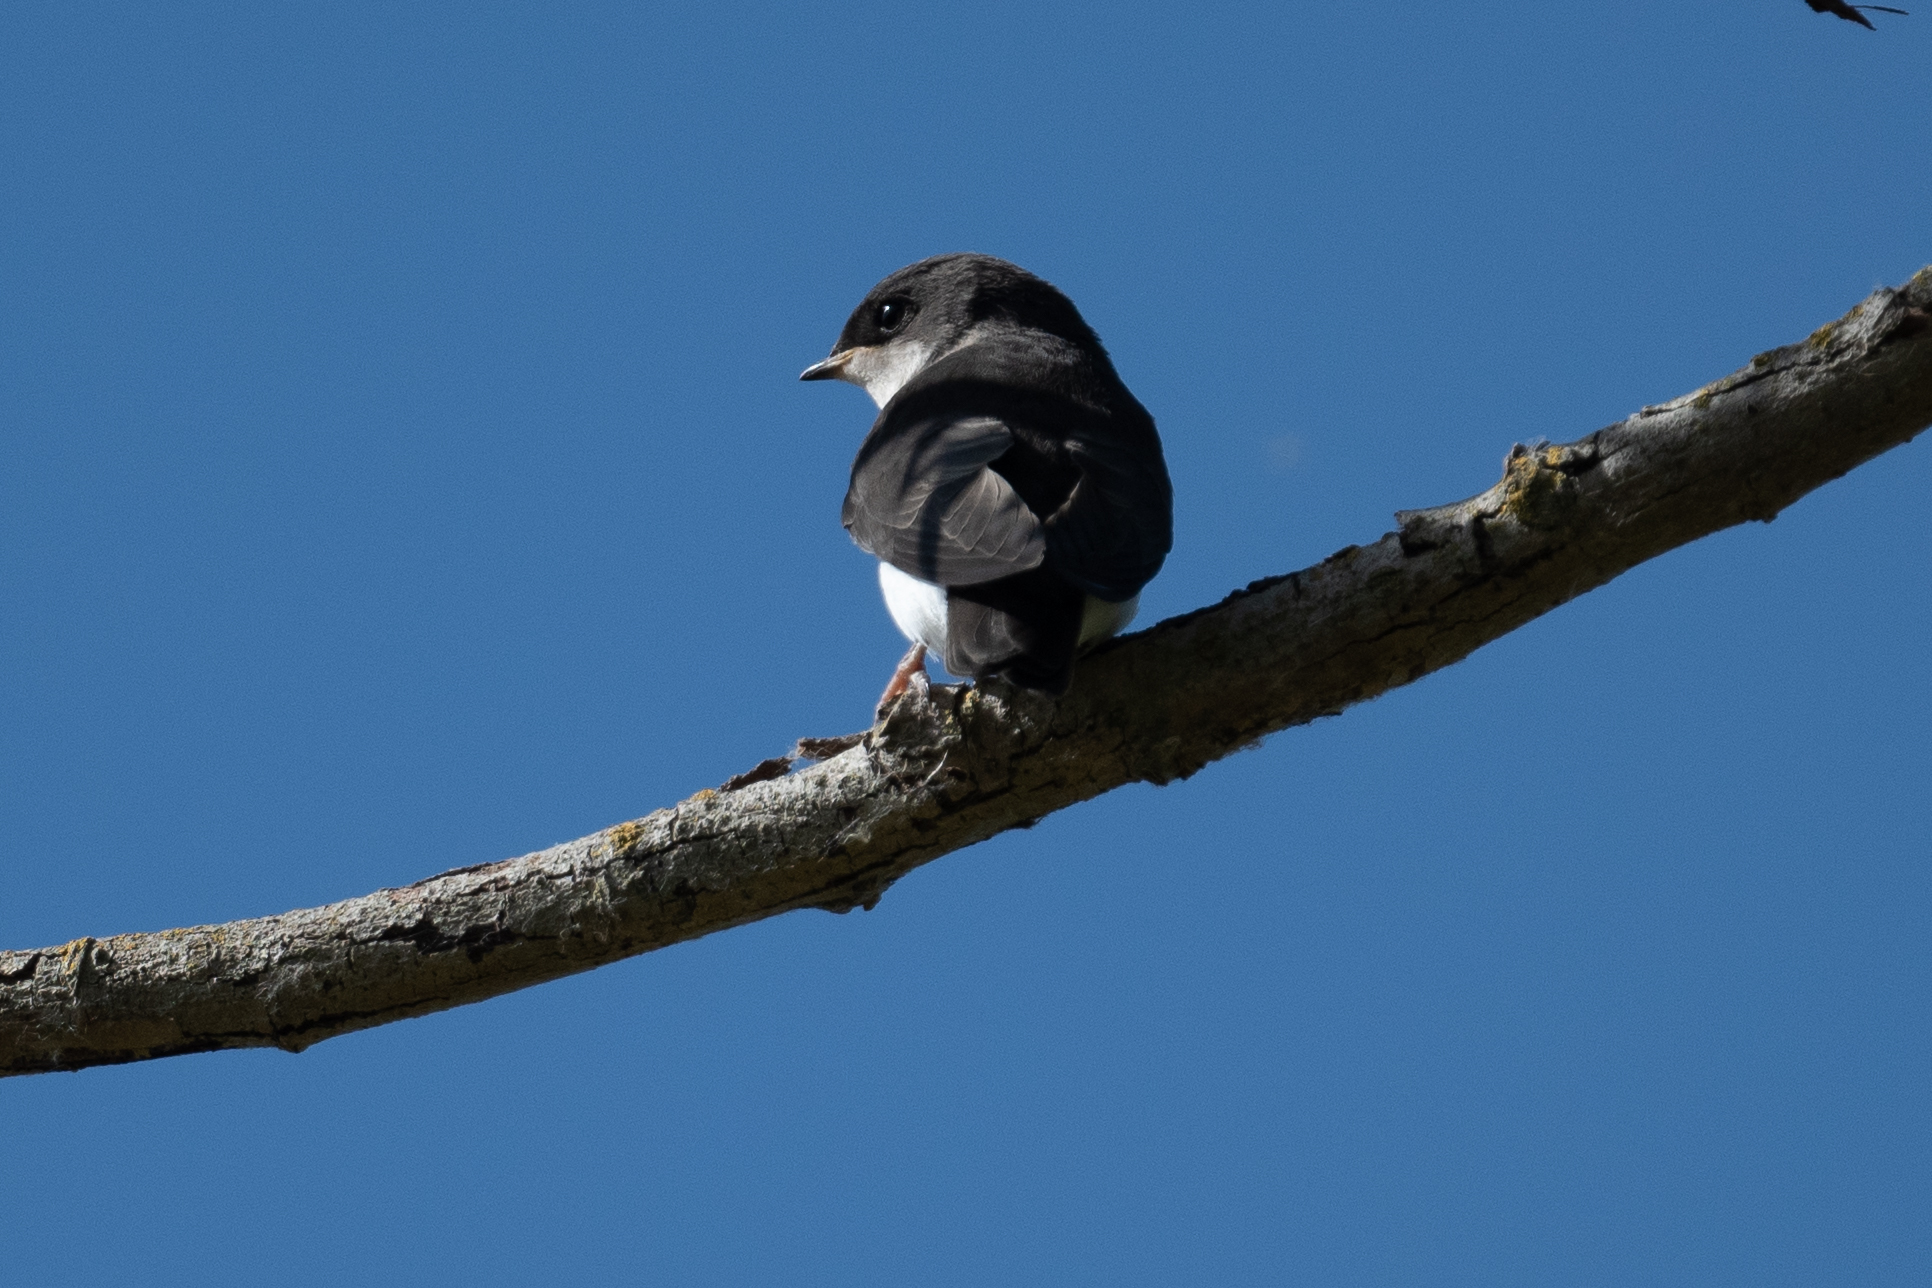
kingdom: Animalia
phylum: Chordata
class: Aves
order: Passeriformes
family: Hirundinidae
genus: Tachycineta
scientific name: Tachycineta bicolor
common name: Tree swallow
